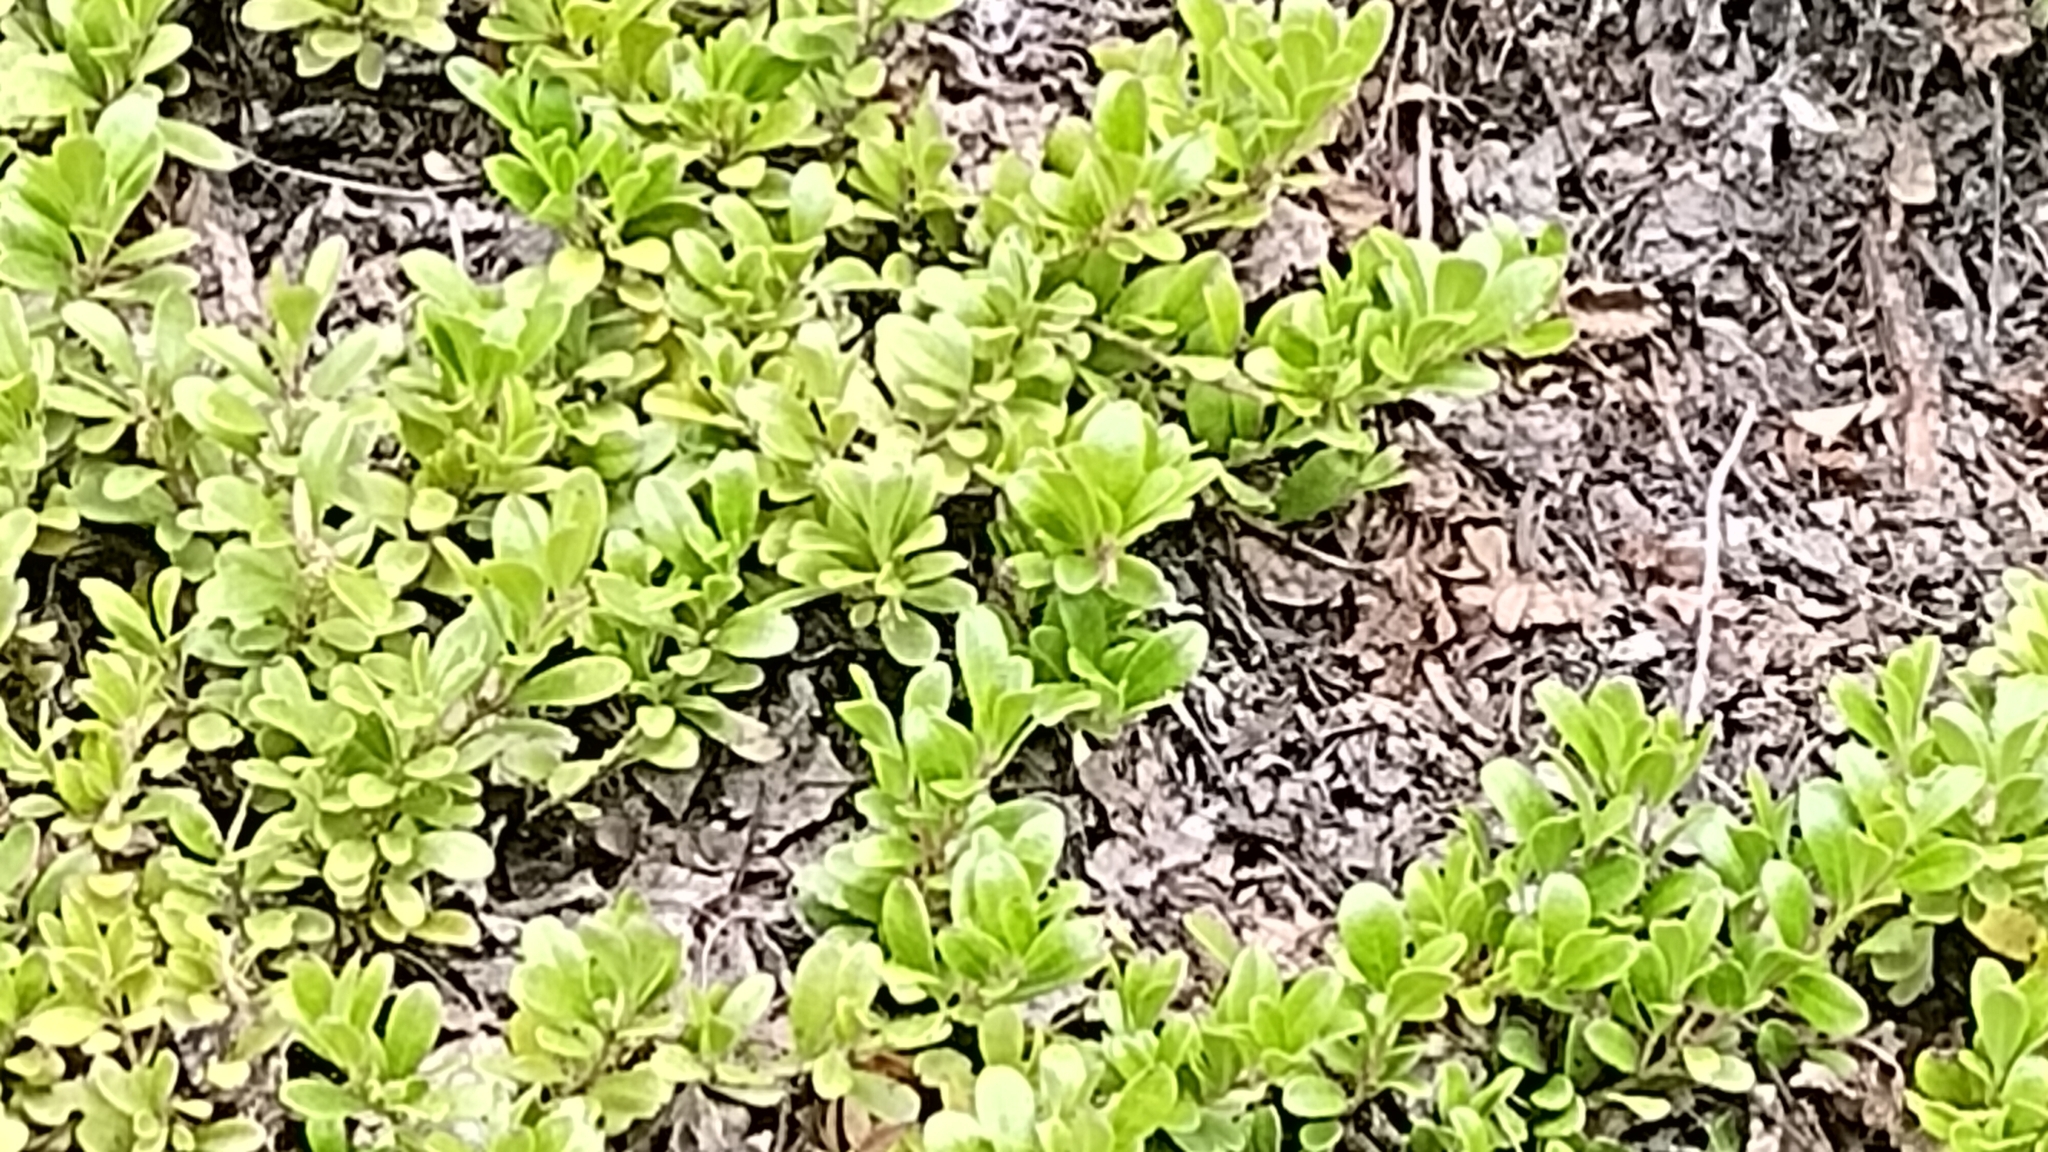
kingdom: Plantae
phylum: Tracheophyta
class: Magnoliopsida
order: Ericales
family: Ericaceae
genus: Arctostaphylos
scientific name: Arctostaphylos uva-ursi
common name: Bearberry
